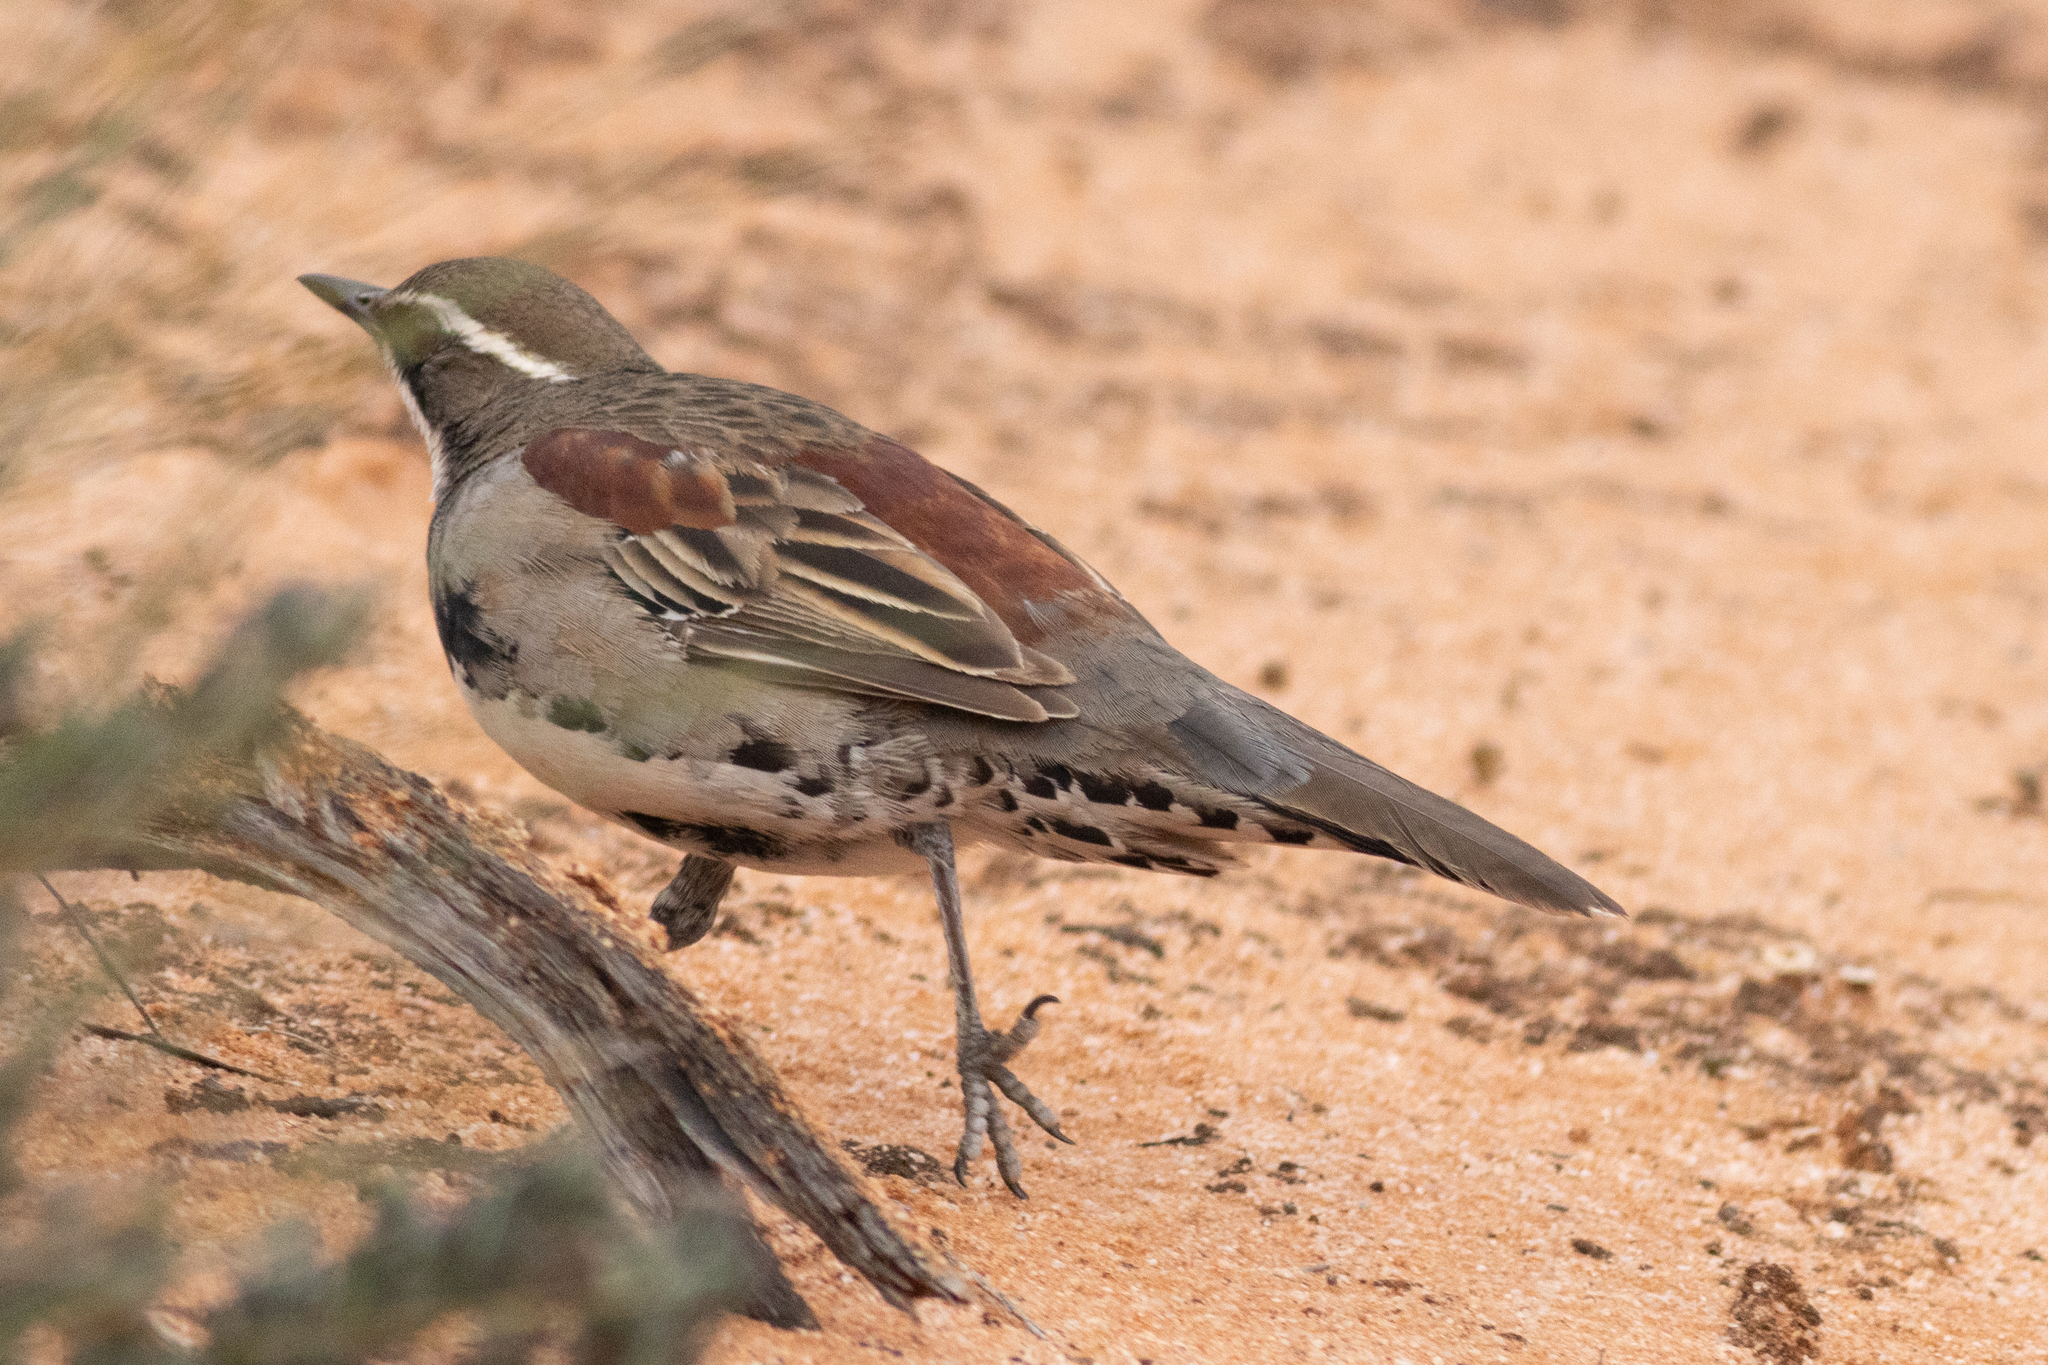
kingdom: Animalia
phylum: Chordata
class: Aves
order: Passeriformes
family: Psophodidae
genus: Cinclosoma
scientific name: Cinclosoma castanotum
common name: Chestnut quail-thrush
